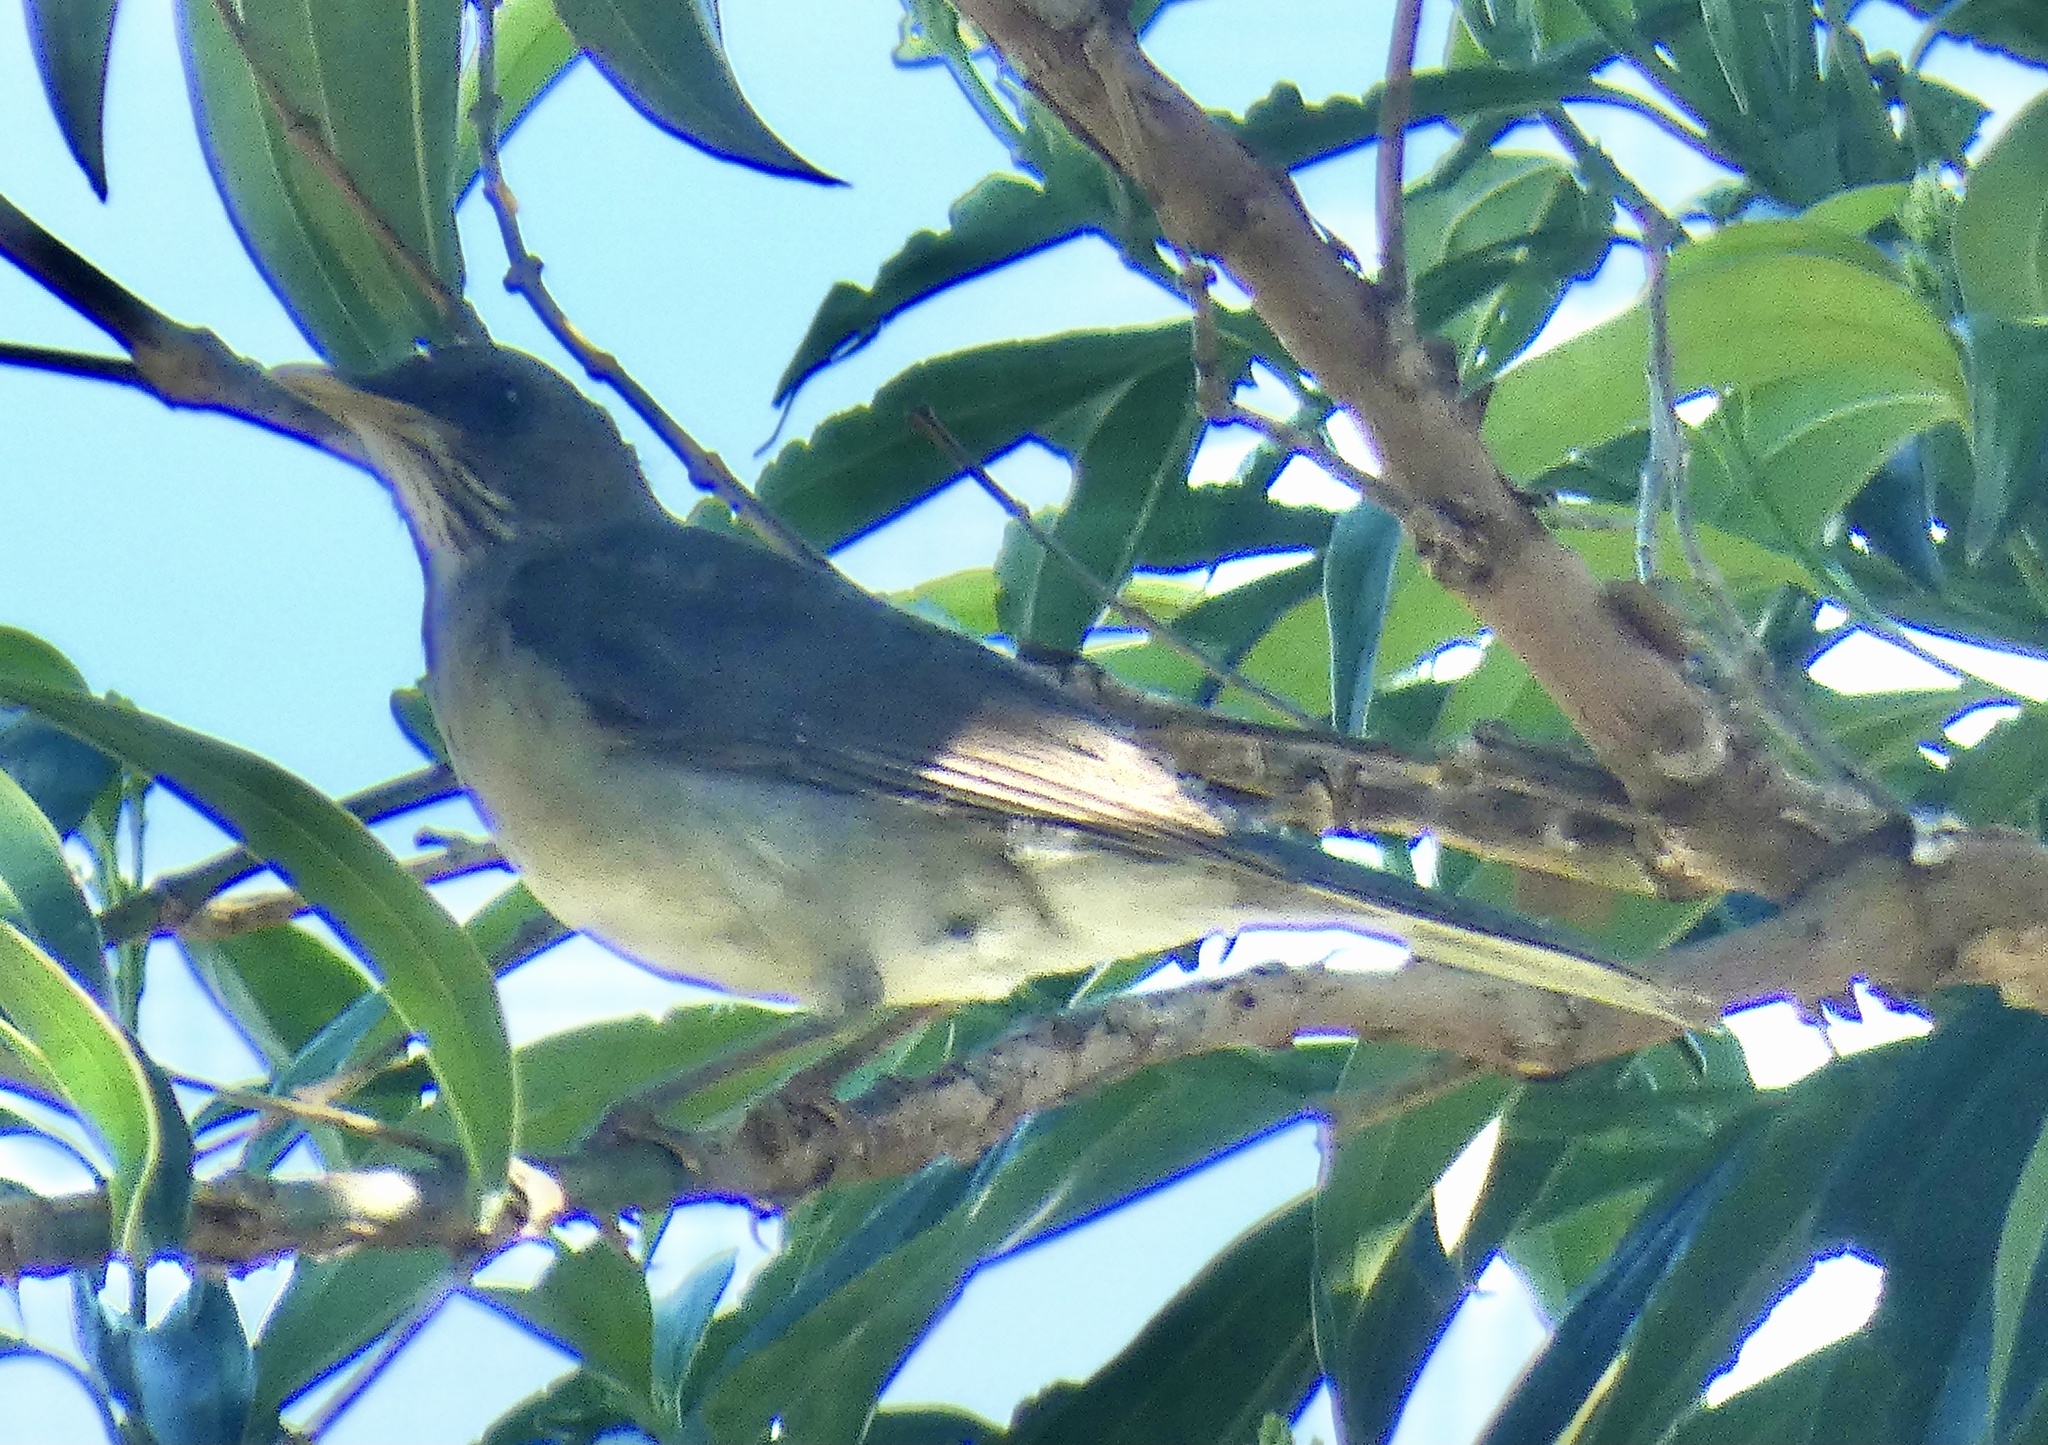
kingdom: Animalia
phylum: Chordata
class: Aves
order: Passeriformes
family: Turdidae
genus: Turdus
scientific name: Turdus amaurochalinus
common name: Creamy-bellied thrush
